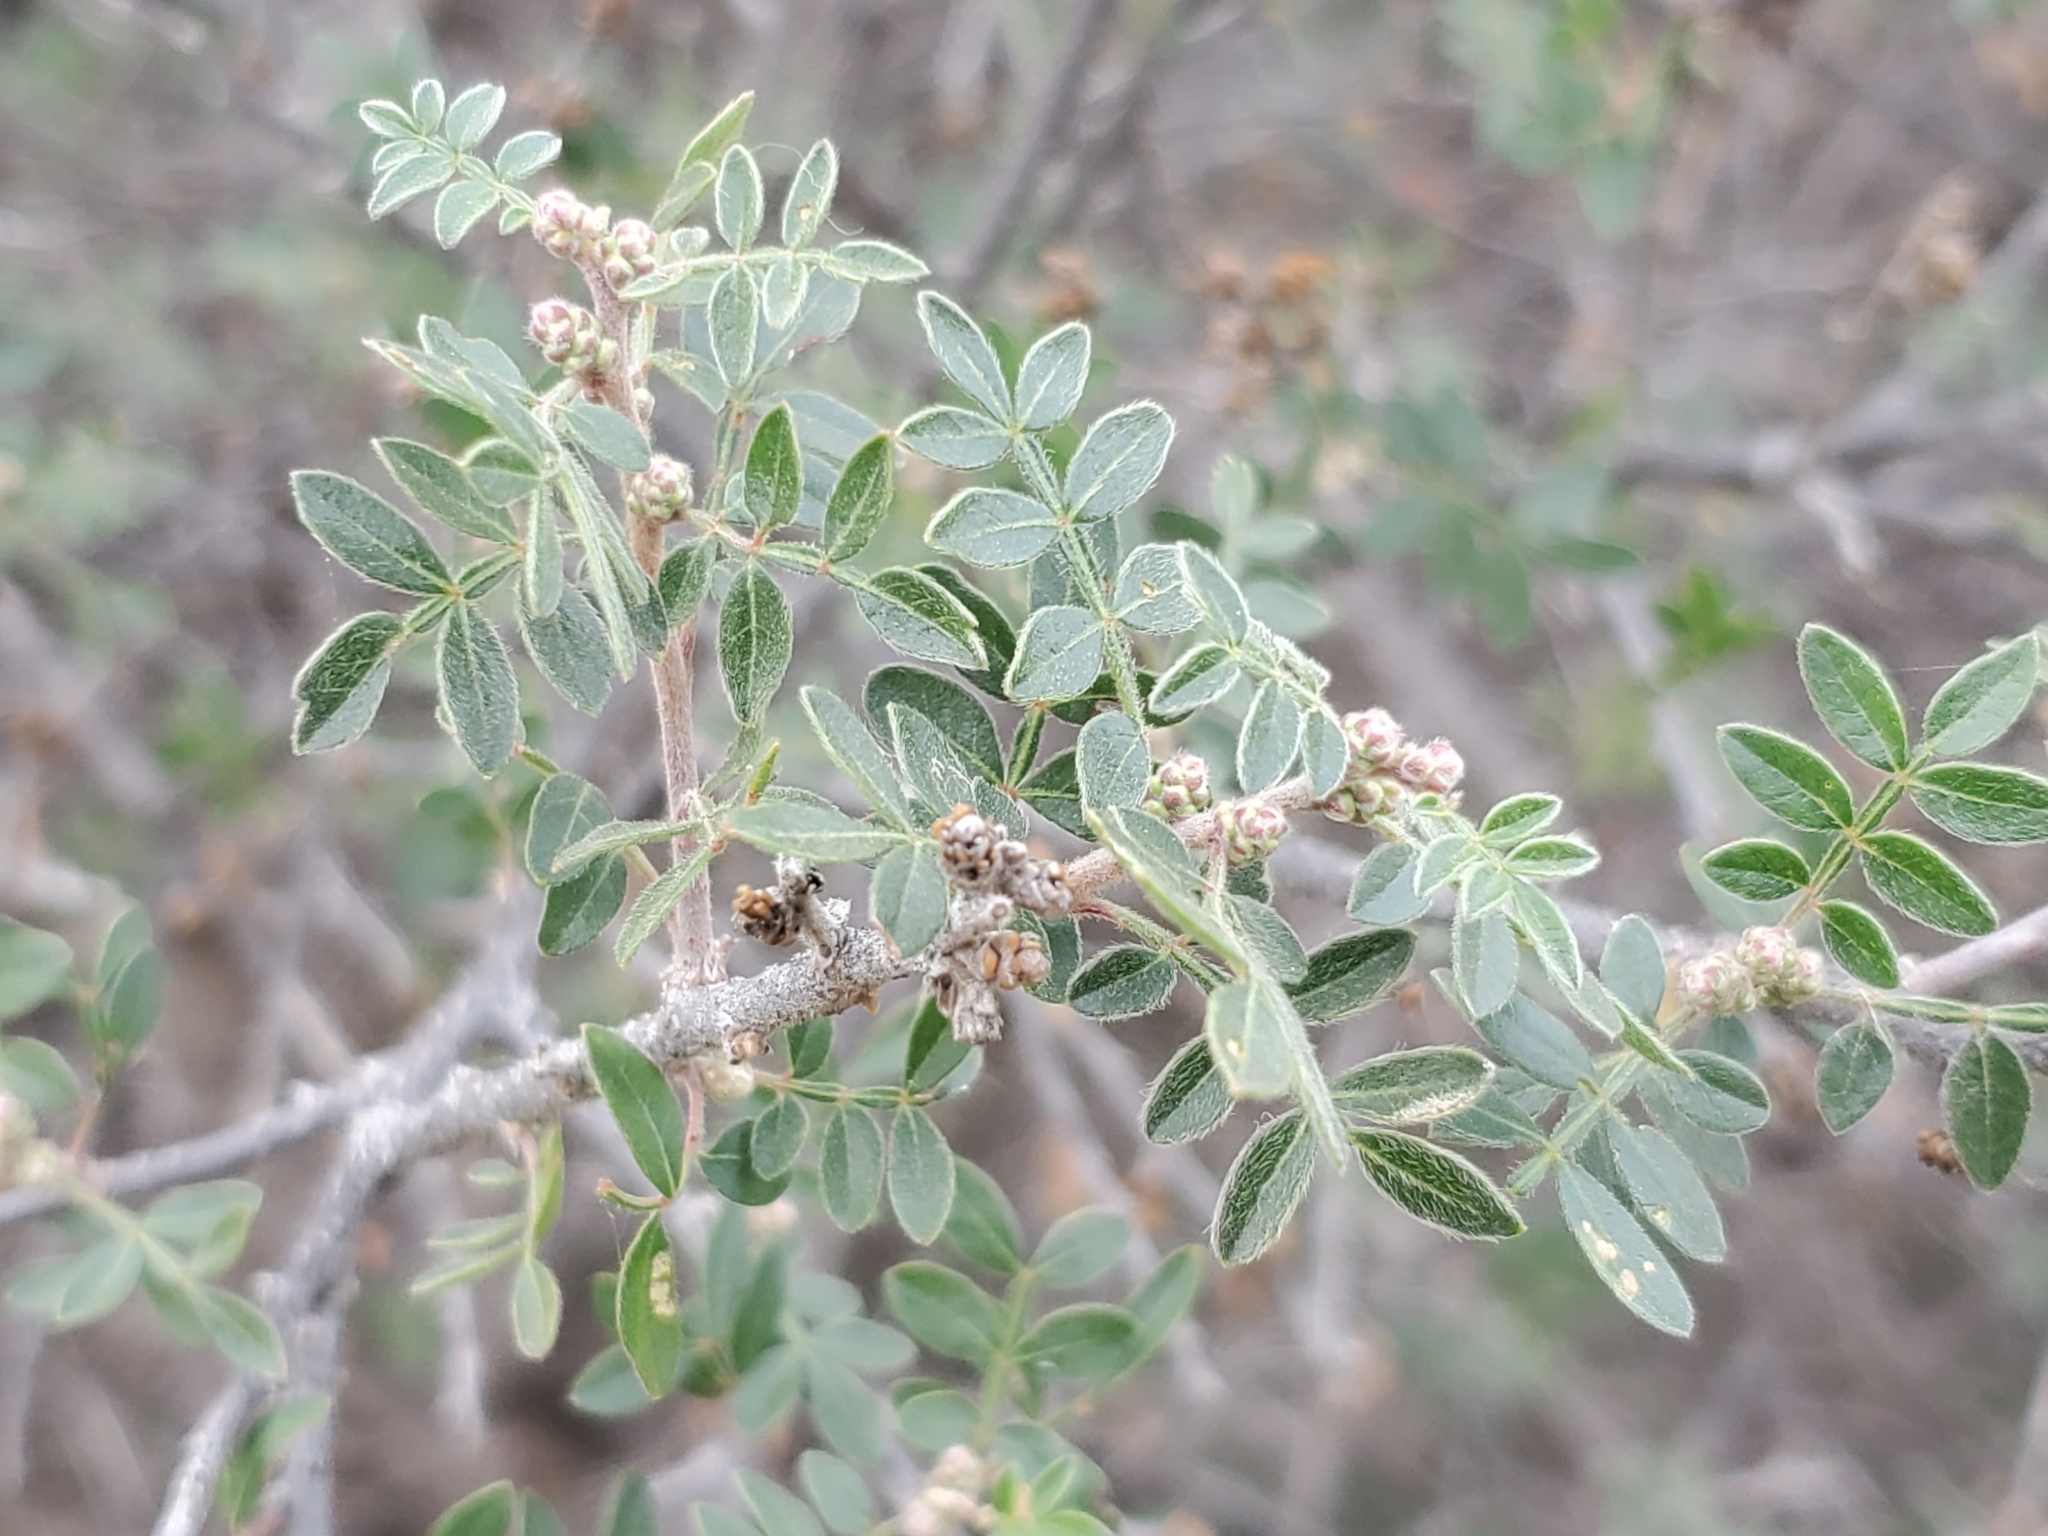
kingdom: Plantae
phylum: Tracheophyta
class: Magnoliopsida
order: Sapindales
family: Anacardiaceae
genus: Rhus
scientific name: Rhus microphylla
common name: Desert sumac
